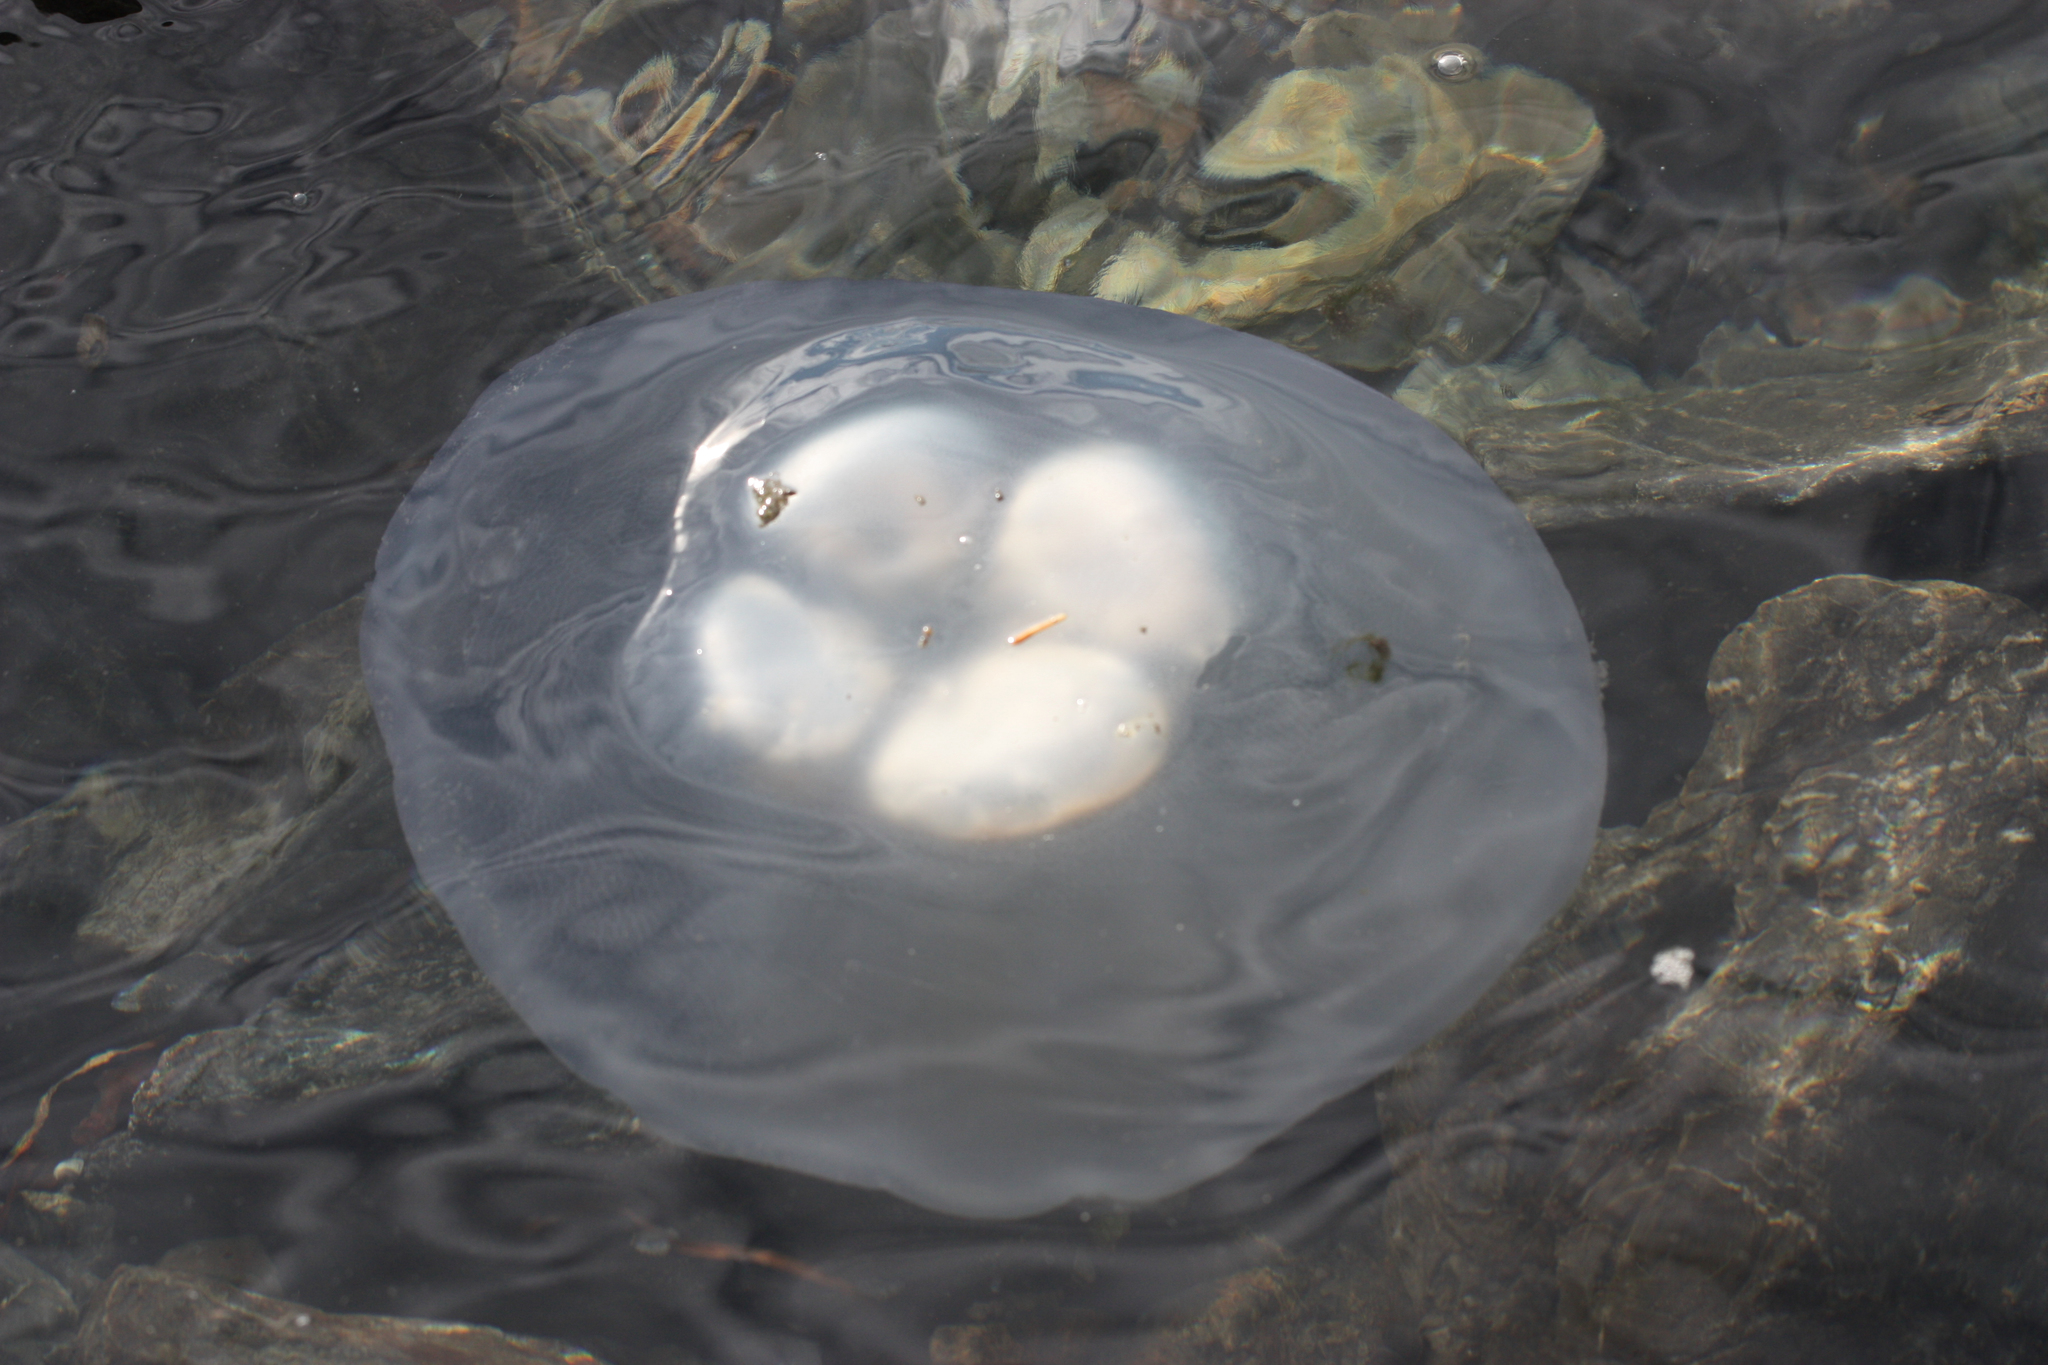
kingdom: Animalia
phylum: Cnidaria
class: Scyphozoa
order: Semaeostomeae
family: Ulmaridae
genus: Aurelia
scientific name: Aurelia labiata
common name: Pacific moon jelly
